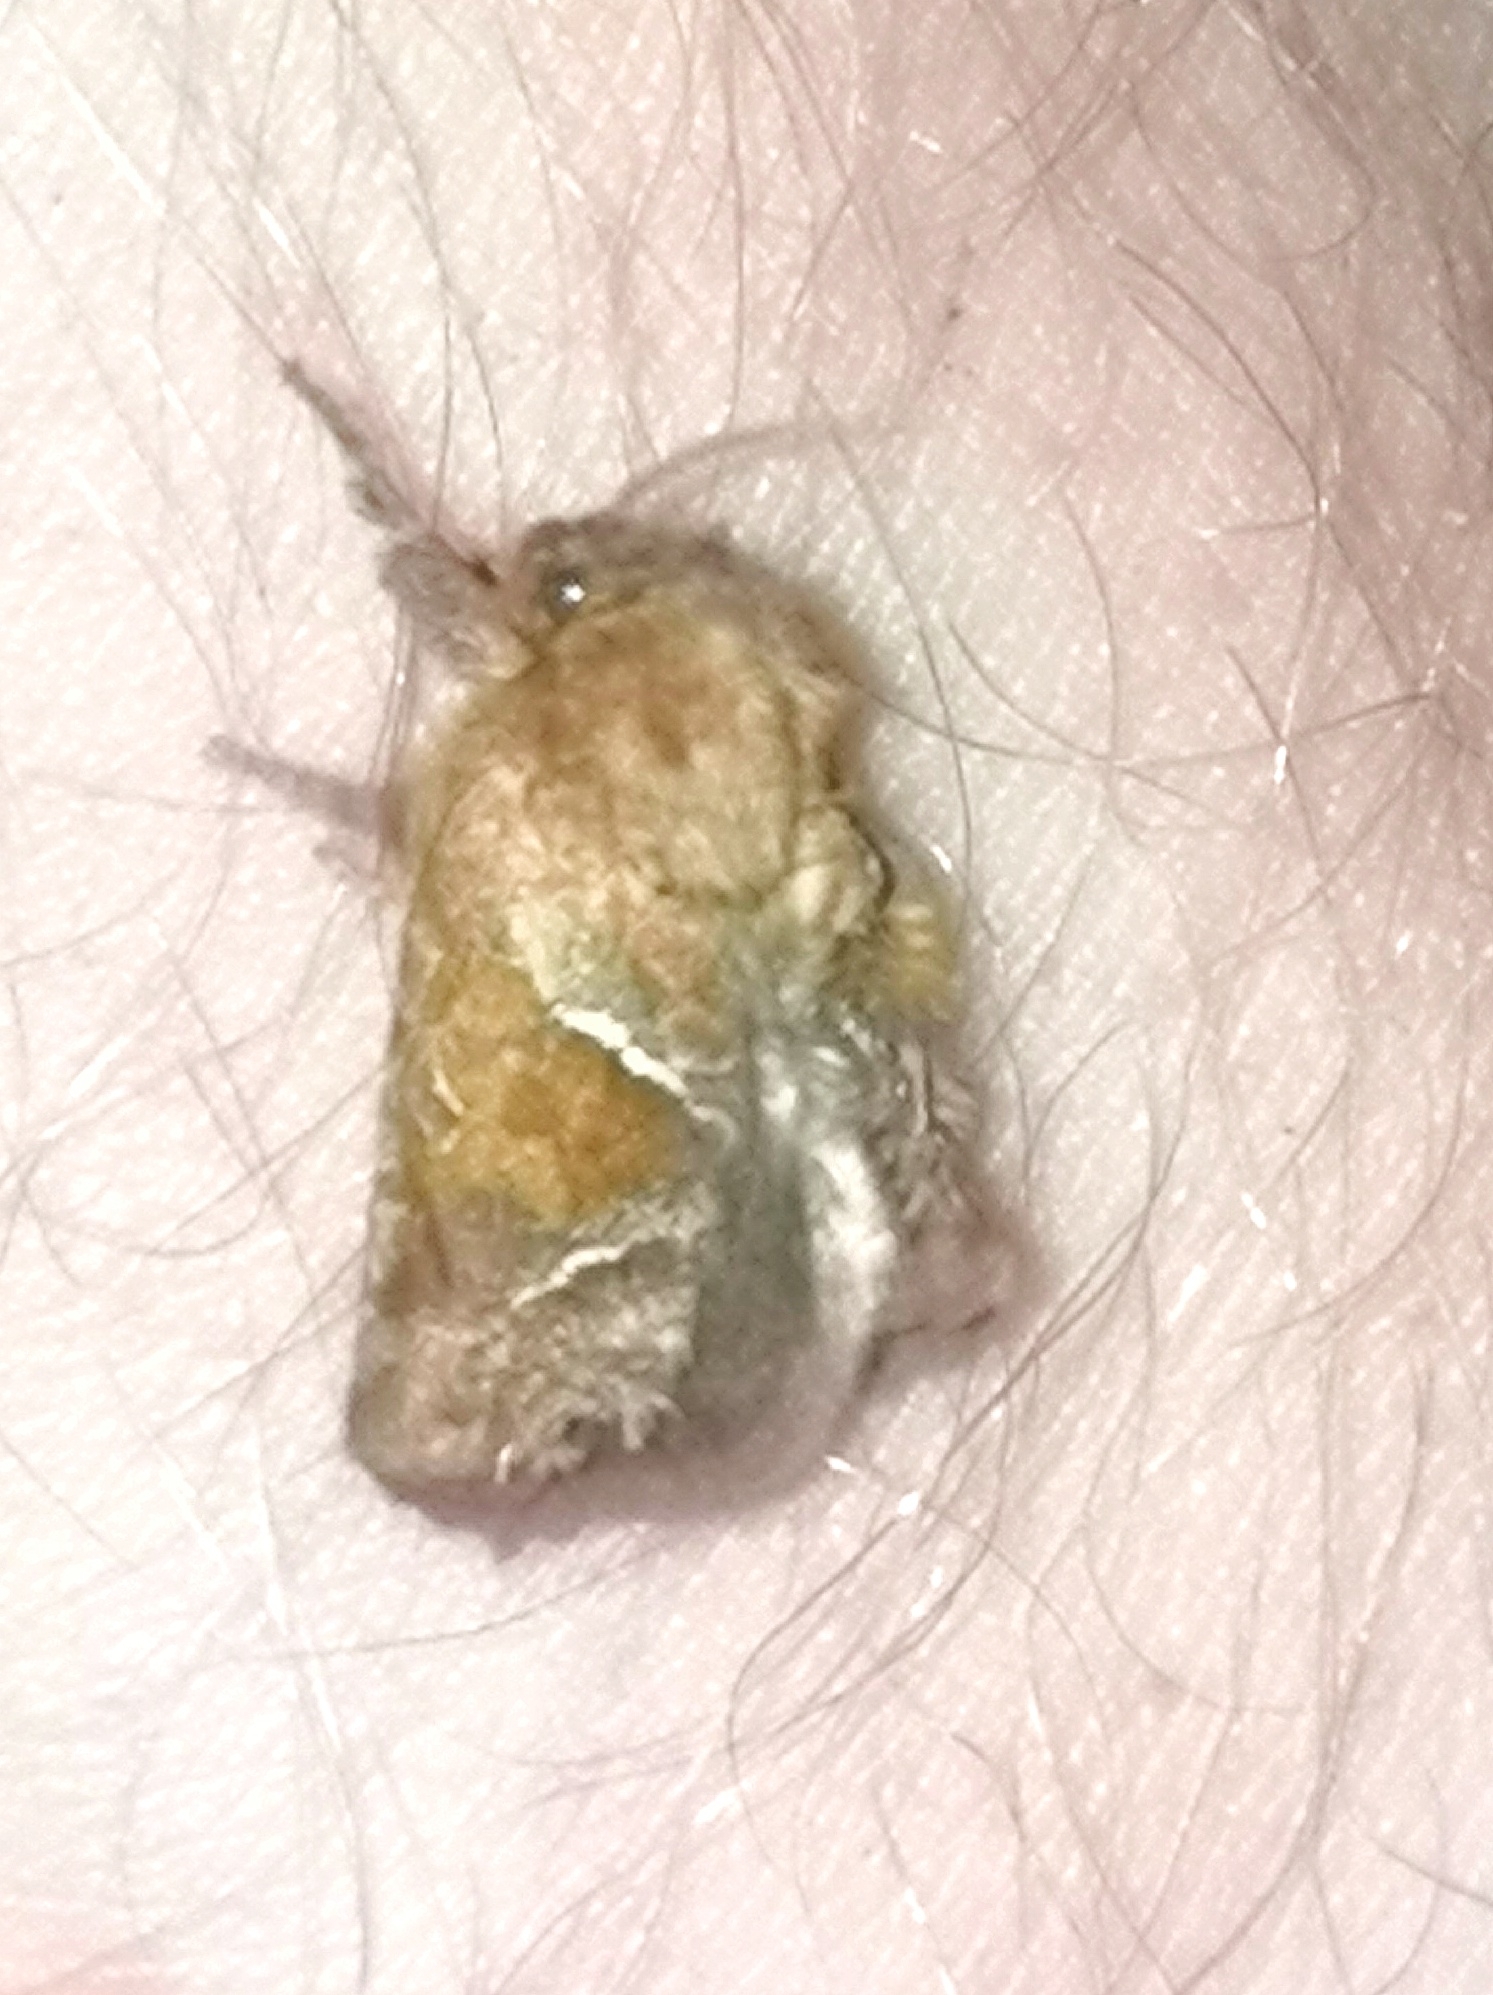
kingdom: Animalia
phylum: Arthropoda
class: Insecta
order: Lepidoptera
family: Hepialidae
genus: Triodia
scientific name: Triodia sylvina
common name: Orange swift
